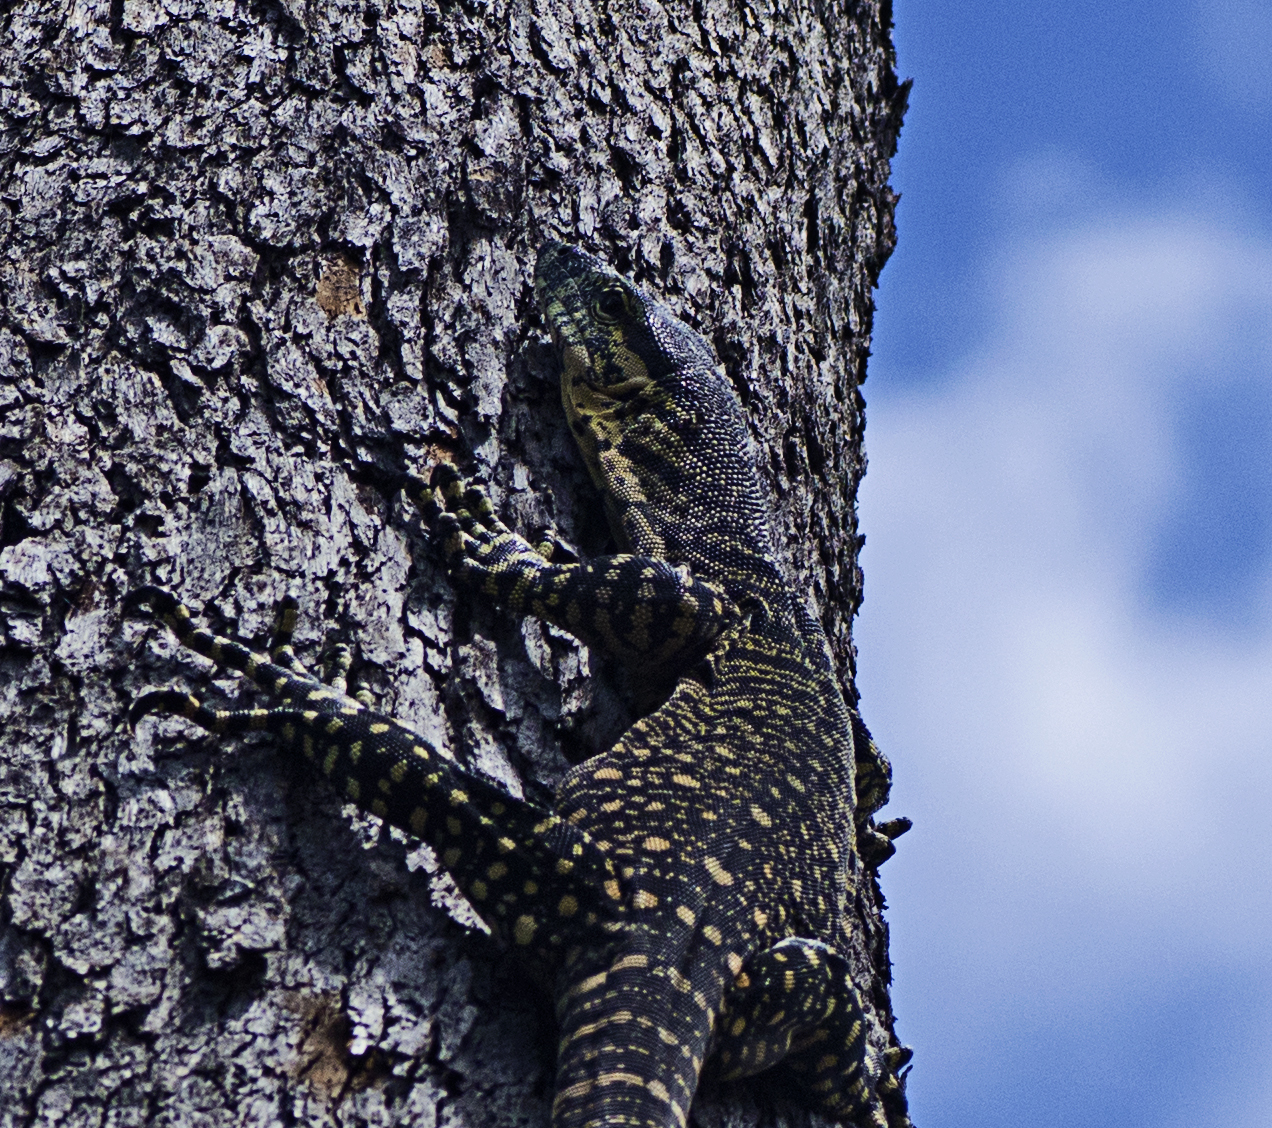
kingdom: Animalia
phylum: Chordata
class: Squamata
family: Varanidae
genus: Varanus
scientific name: Varanus varius
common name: Lace monitor
